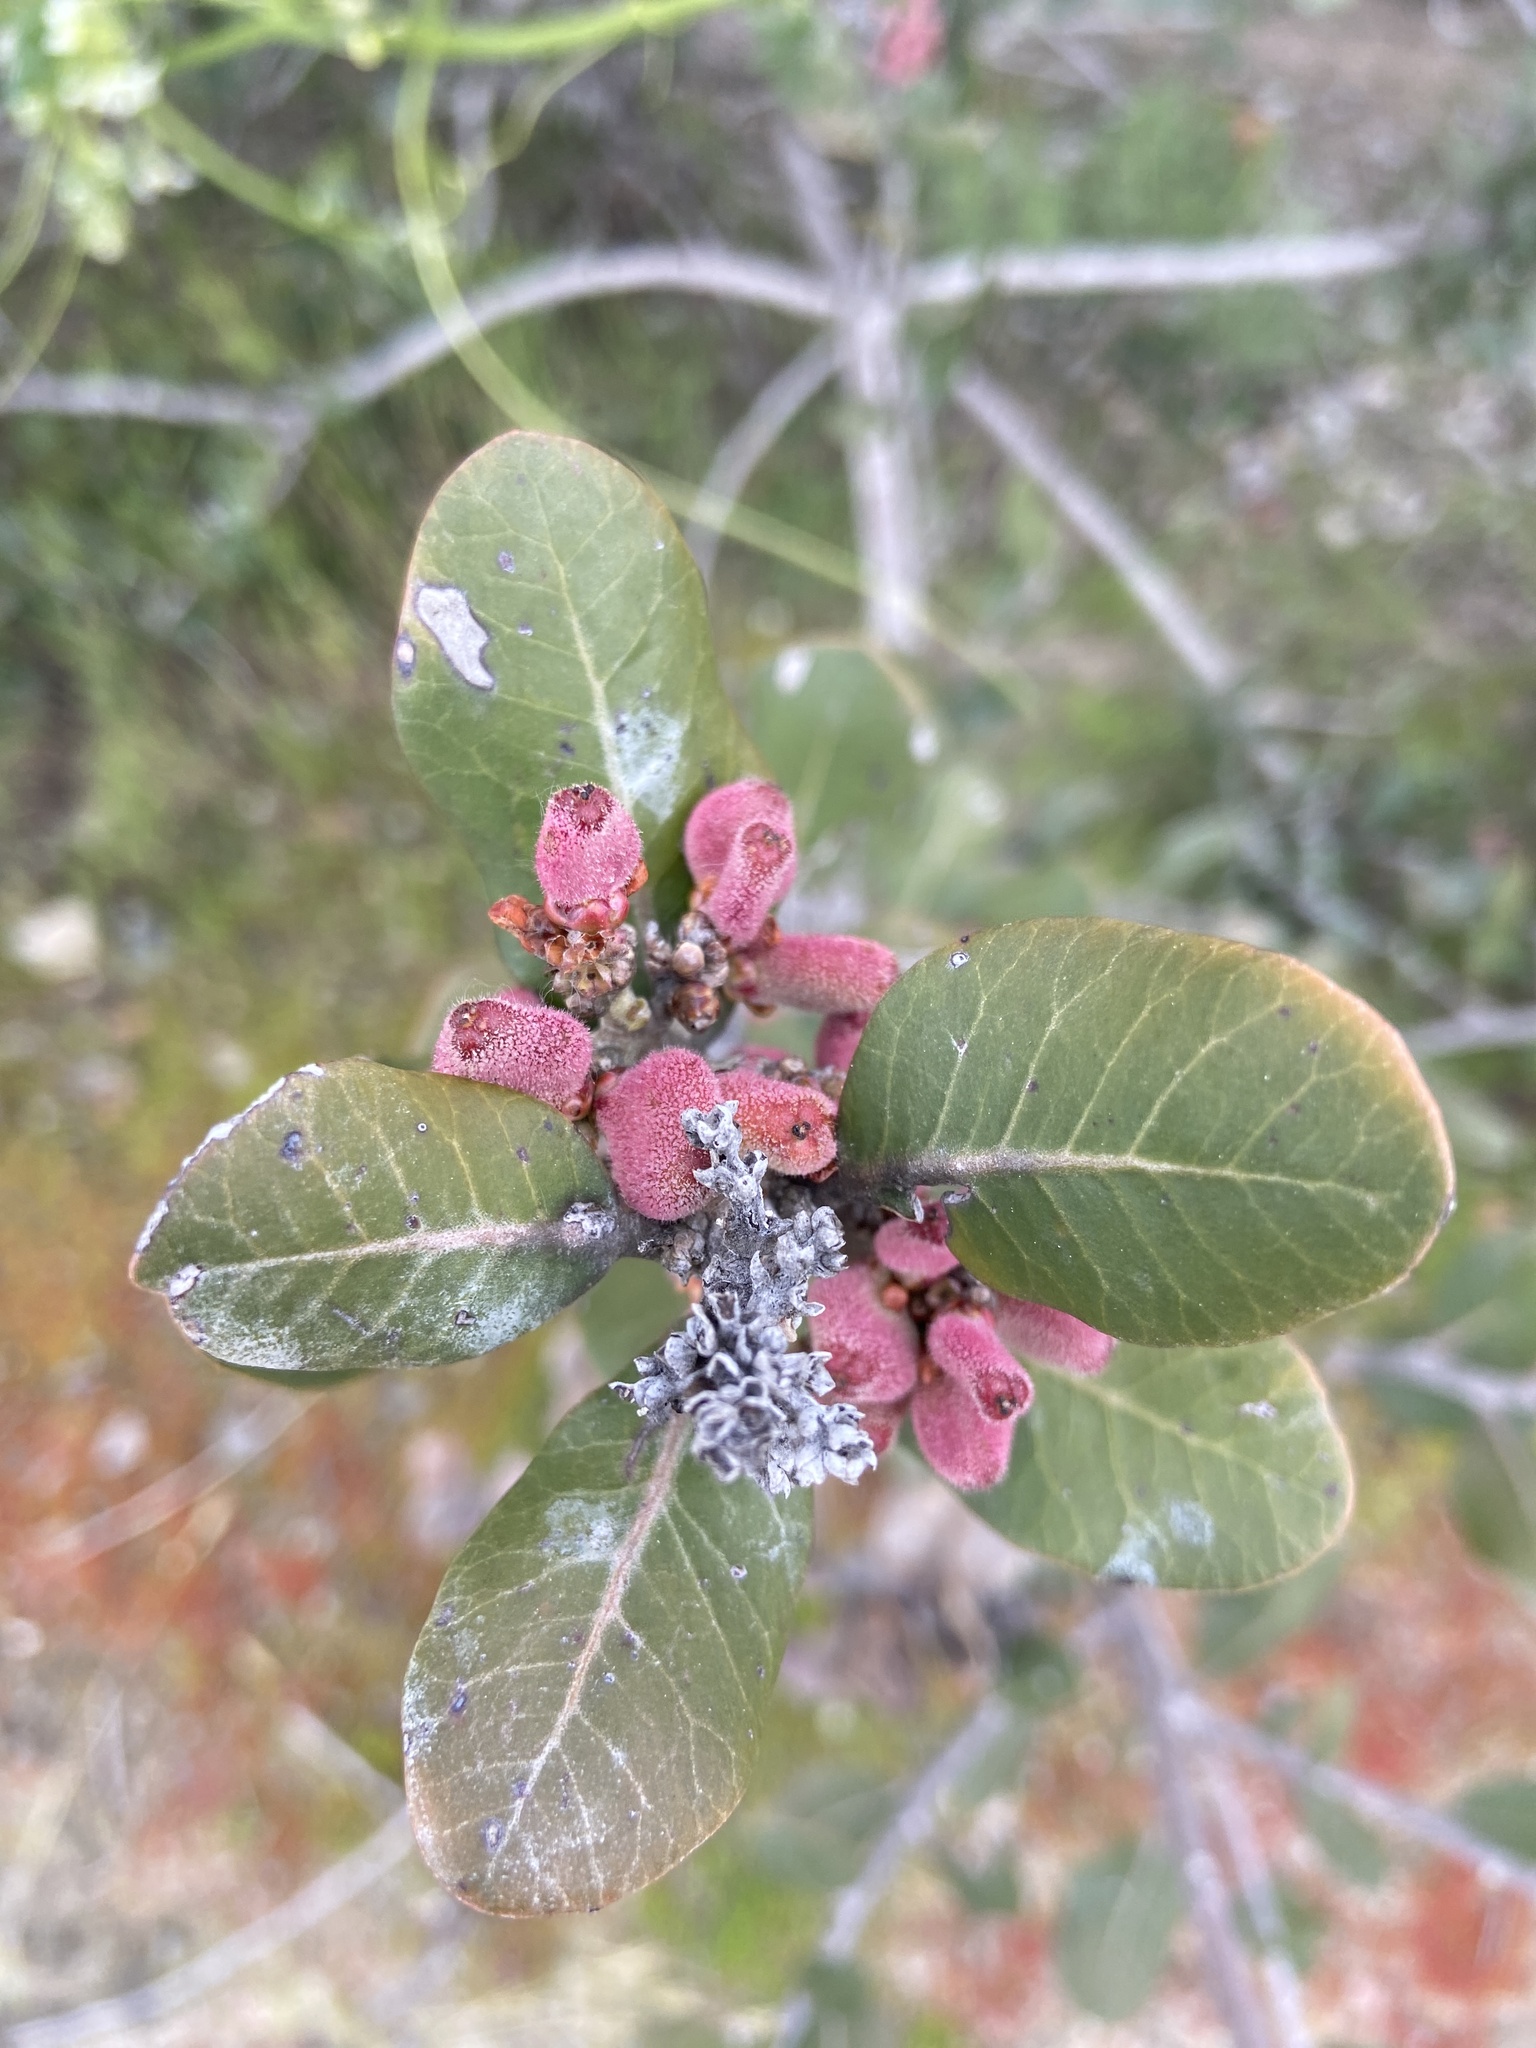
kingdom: Plantae
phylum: Tracheophyta
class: Magnoliopsida
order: Sapindales
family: Anacardiaceae
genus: Rhus
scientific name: Rhus integrifolia
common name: Lemonade sumac
